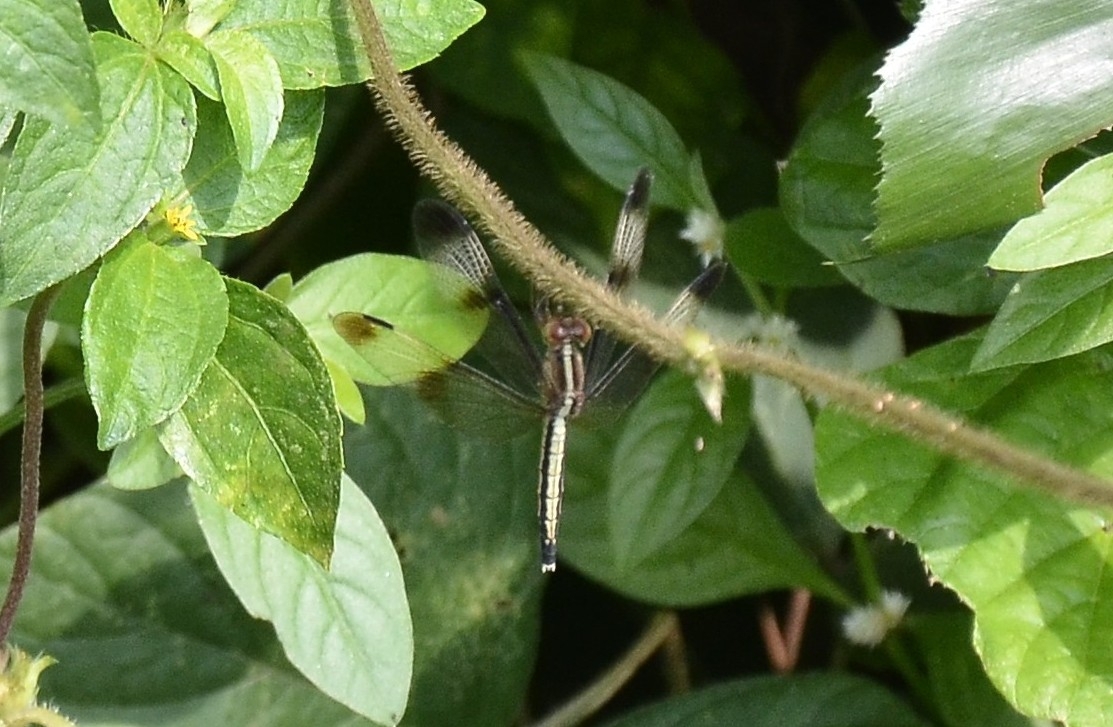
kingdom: Animalia
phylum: Arthropoda
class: Insecta
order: Odonata
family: Libellulidae
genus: Neurothemis
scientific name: Neurothemis tullia
